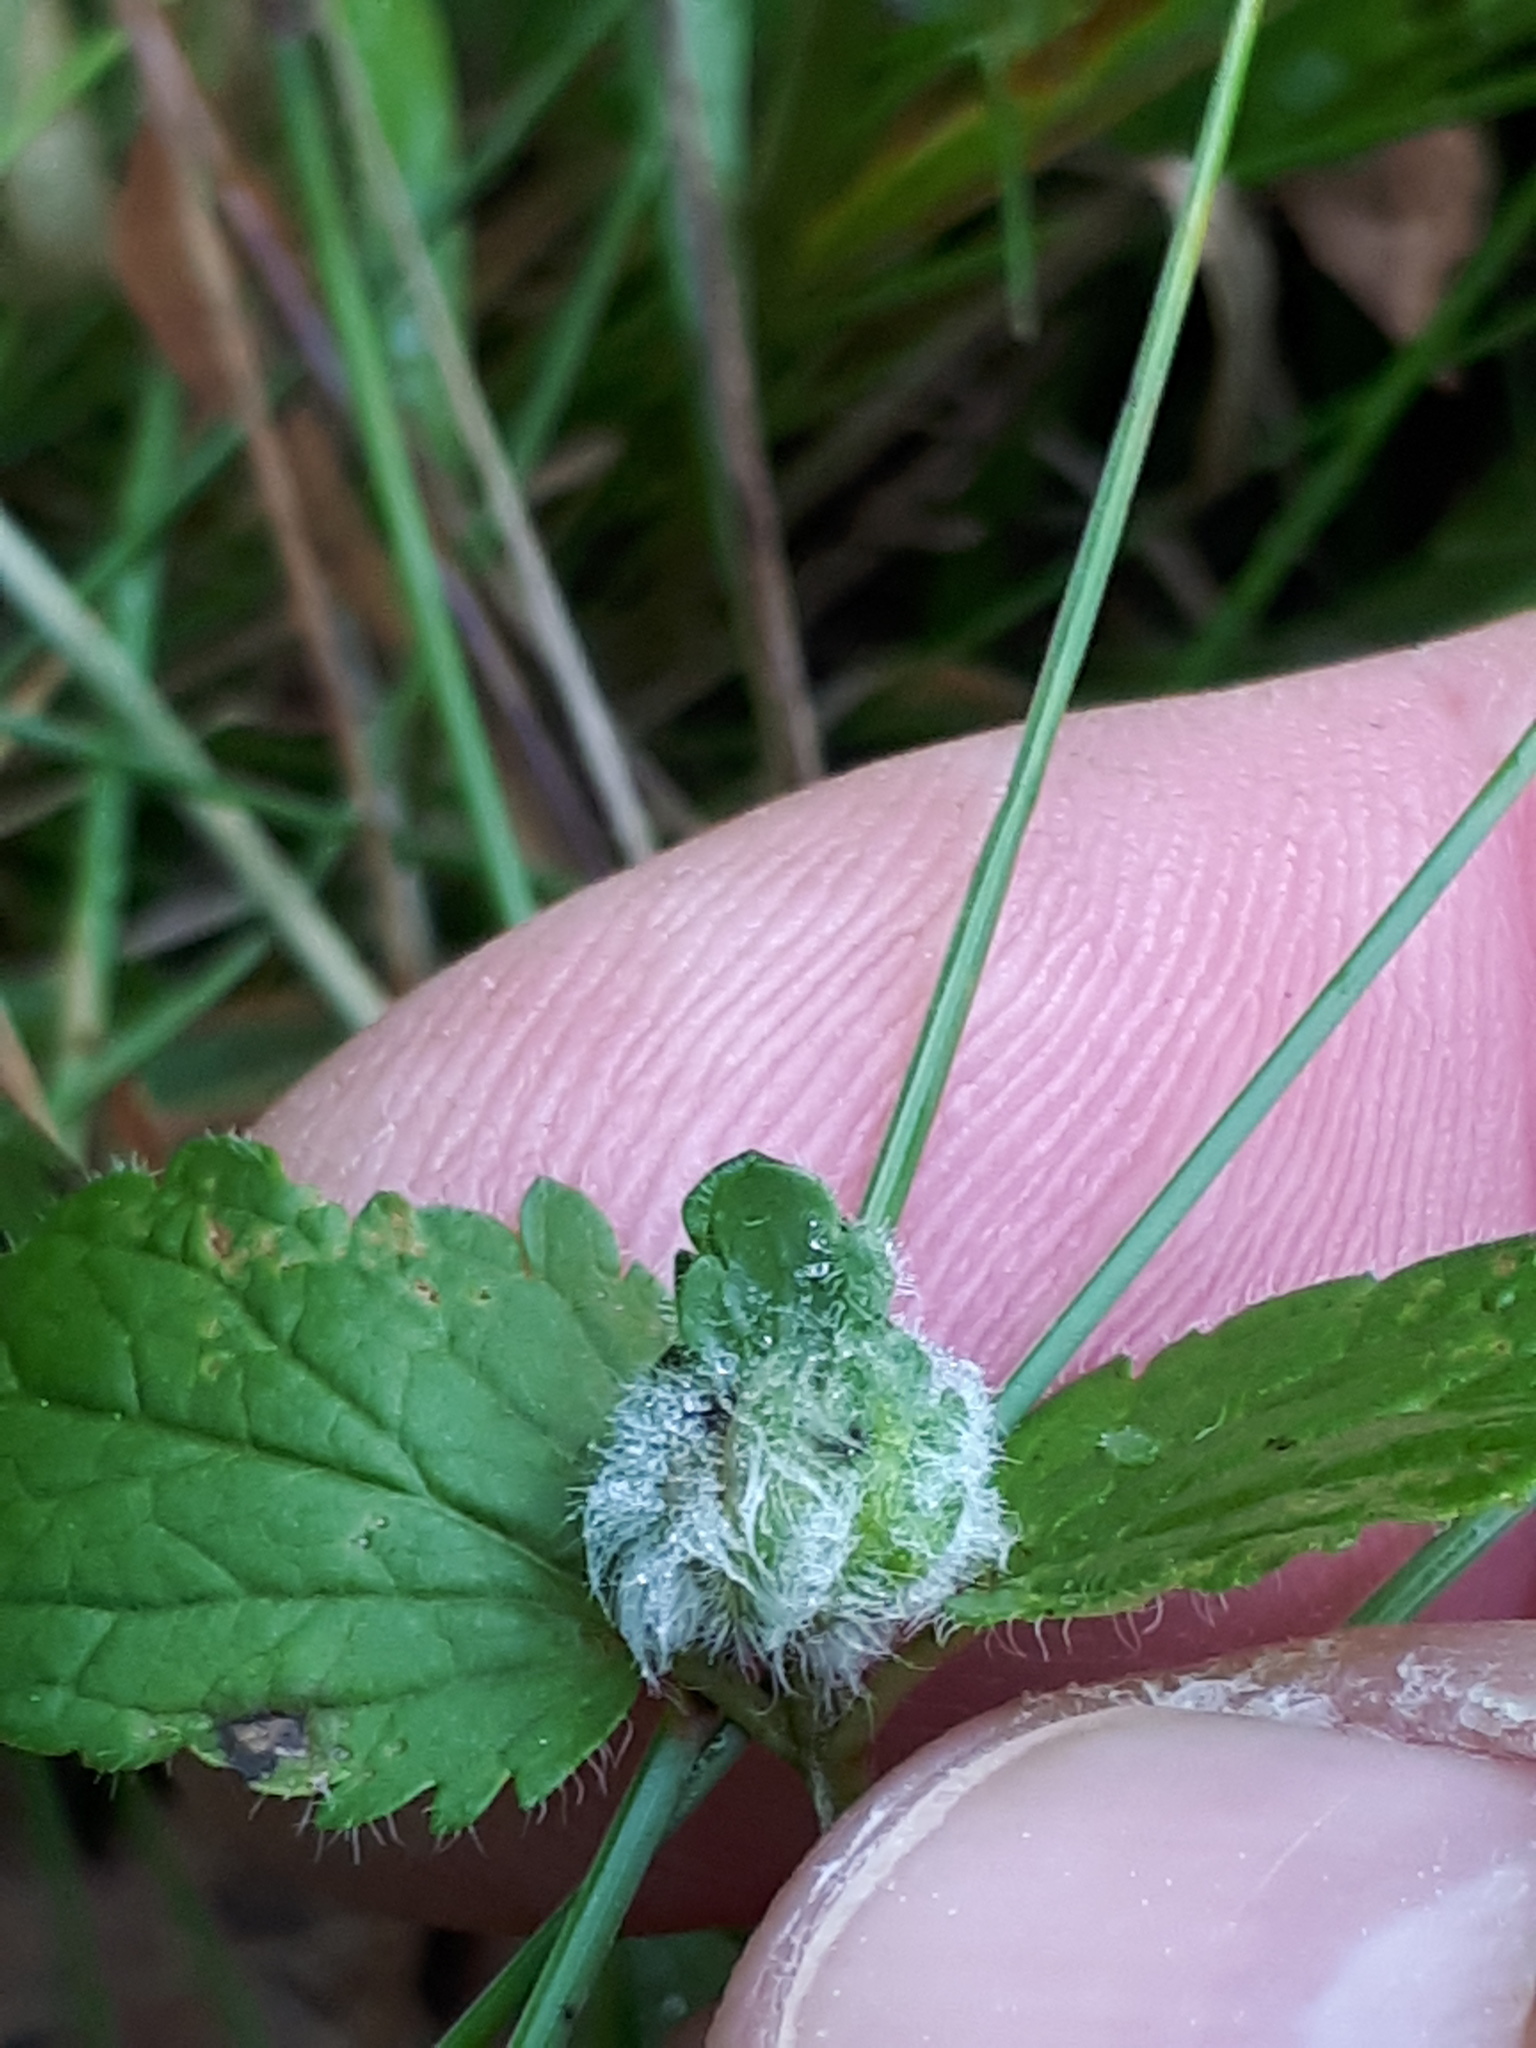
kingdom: Animalia
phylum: Arthropoda
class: Insecta
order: Diptera
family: Cecidomyiidae
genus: Jaapiella
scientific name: Jaapiella veronicae
